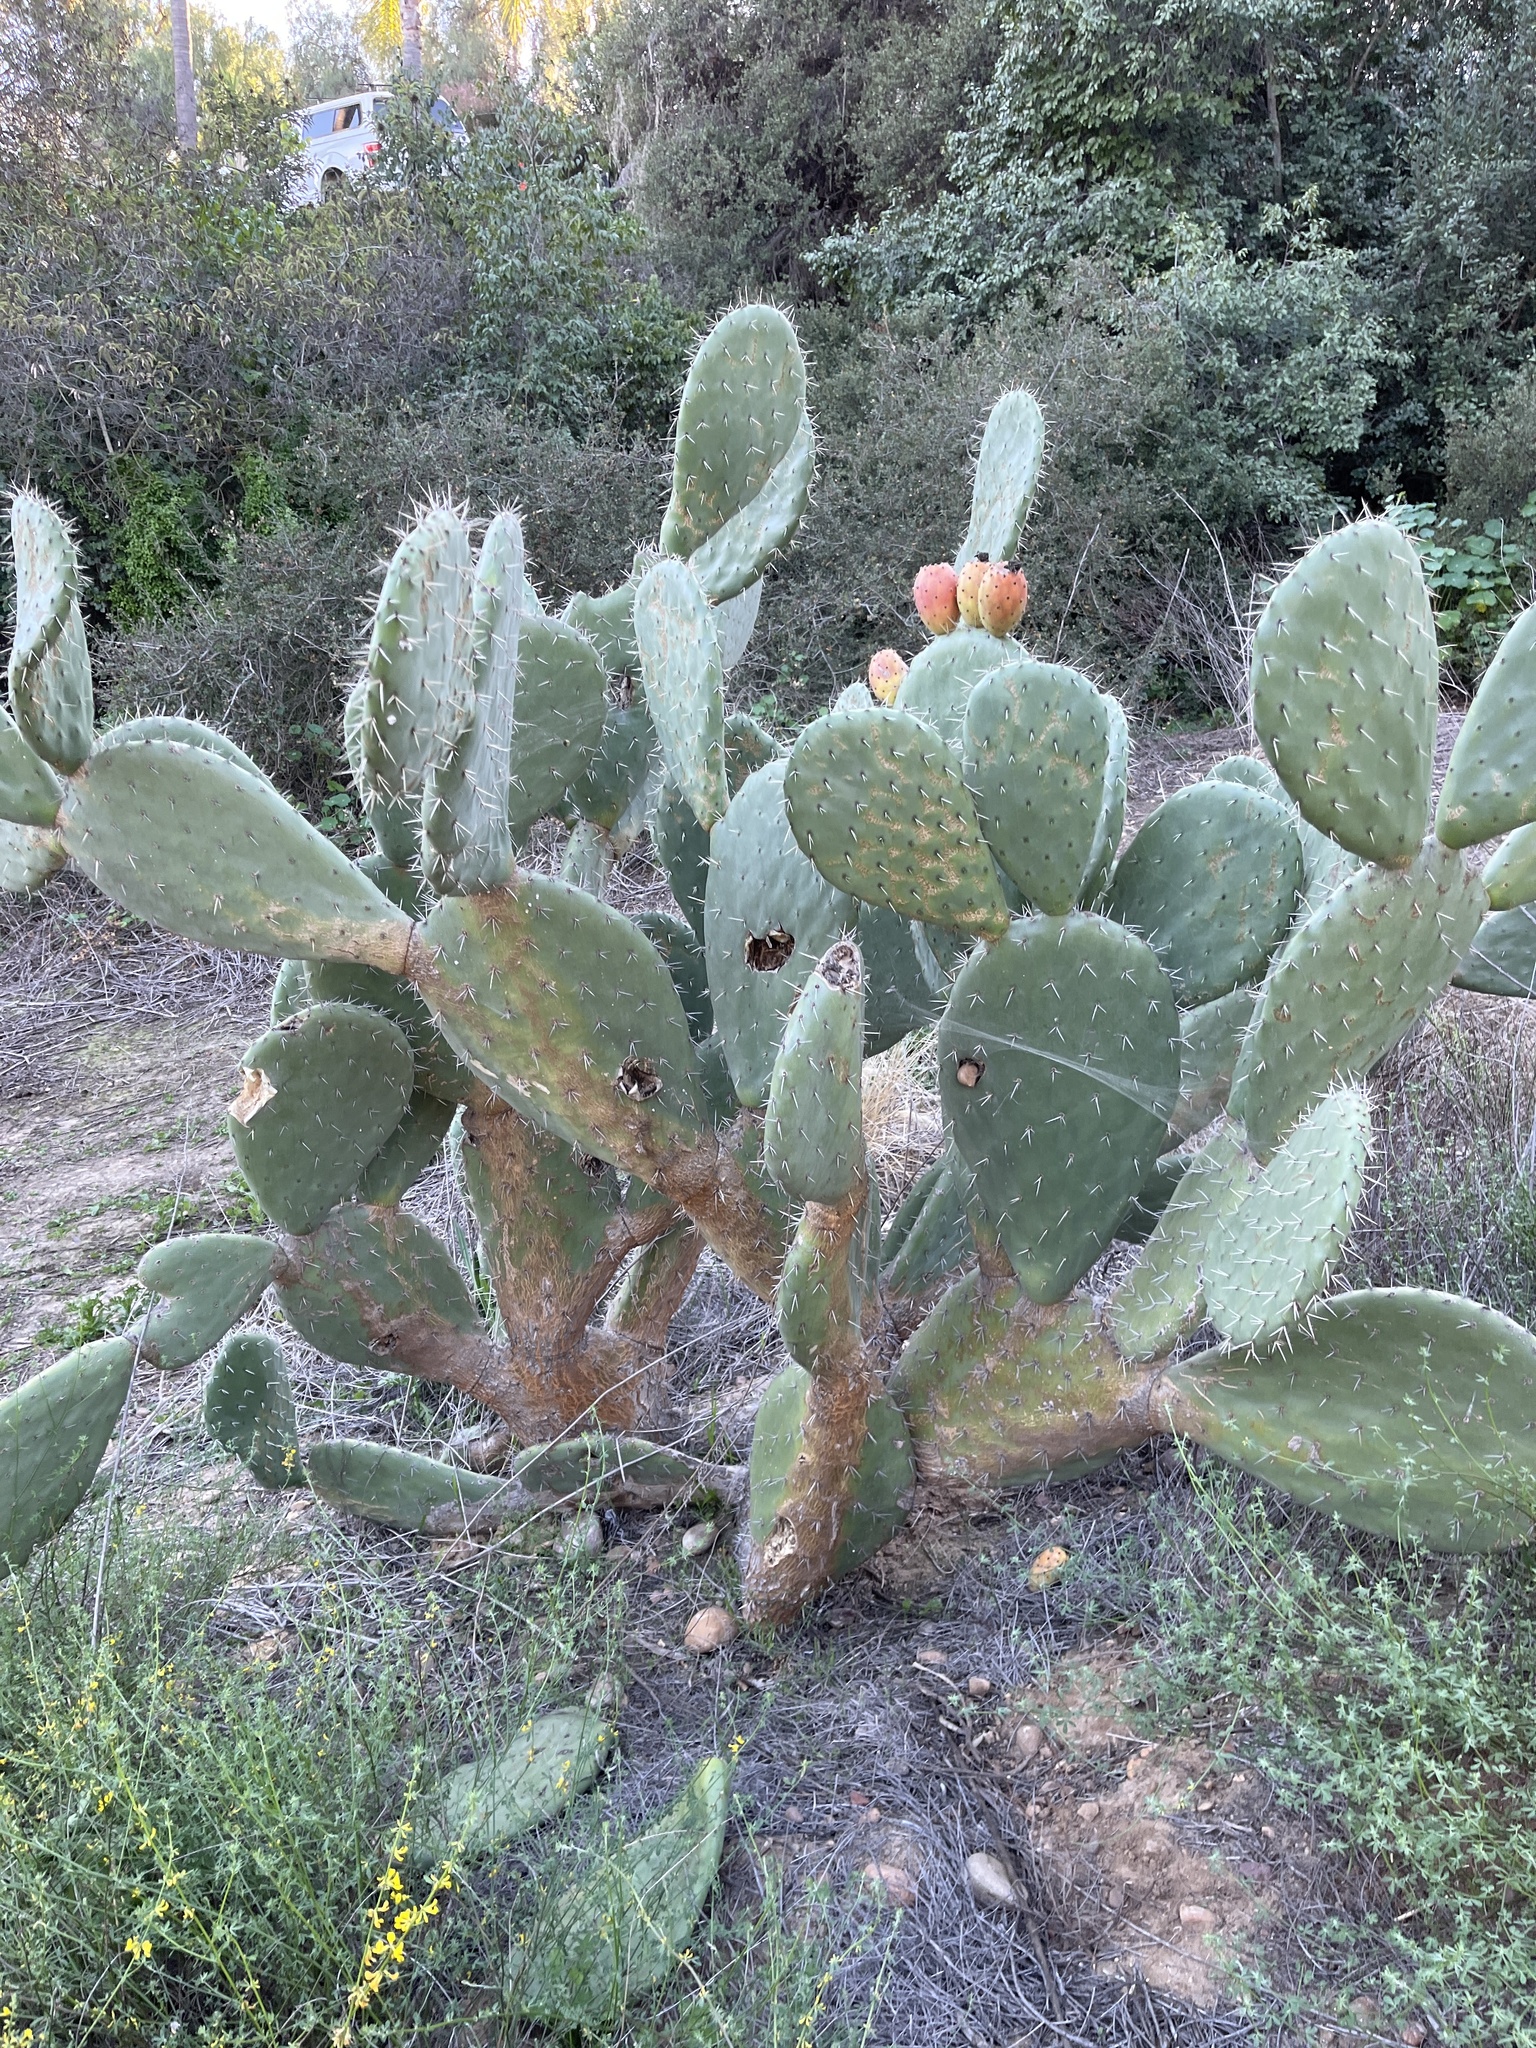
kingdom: Plantae
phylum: Tracheophyta
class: Magnoliopsida
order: Caryophyllales
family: Cactaceae
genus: Opuntia
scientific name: Opuntia ficus-indica
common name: Barbary fig
